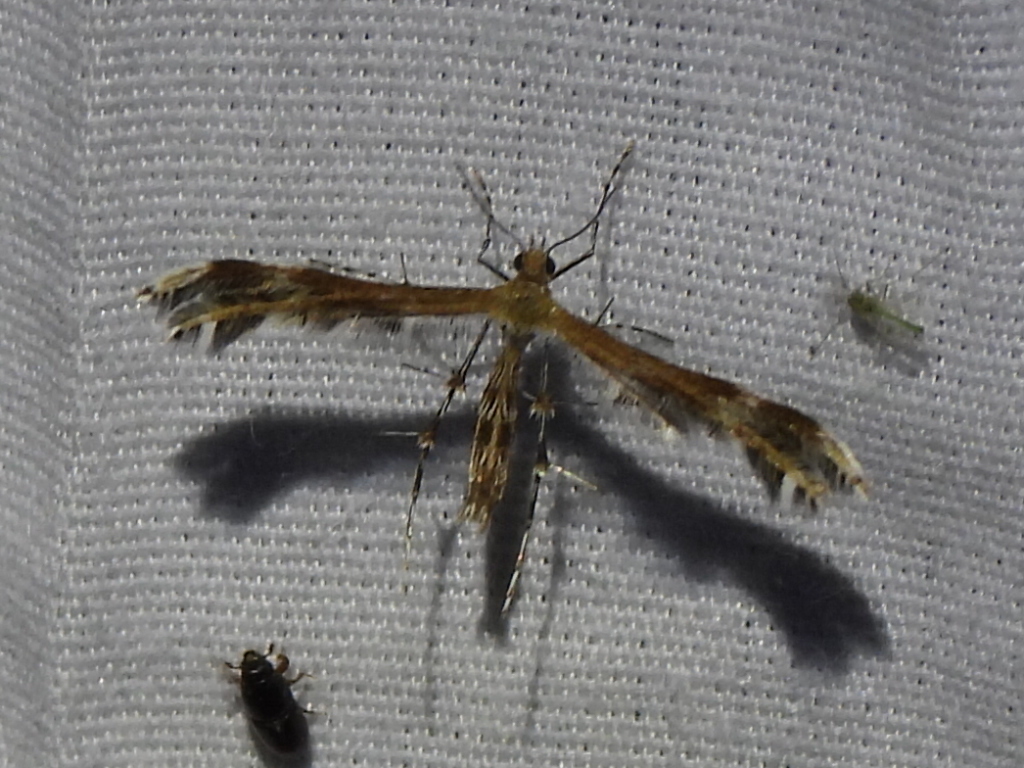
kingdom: Animalia
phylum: Arthropoda
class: Insecta
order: Lepidoptera
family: Pterophoridae
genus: Dejongia
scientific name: Dejongia californicus
